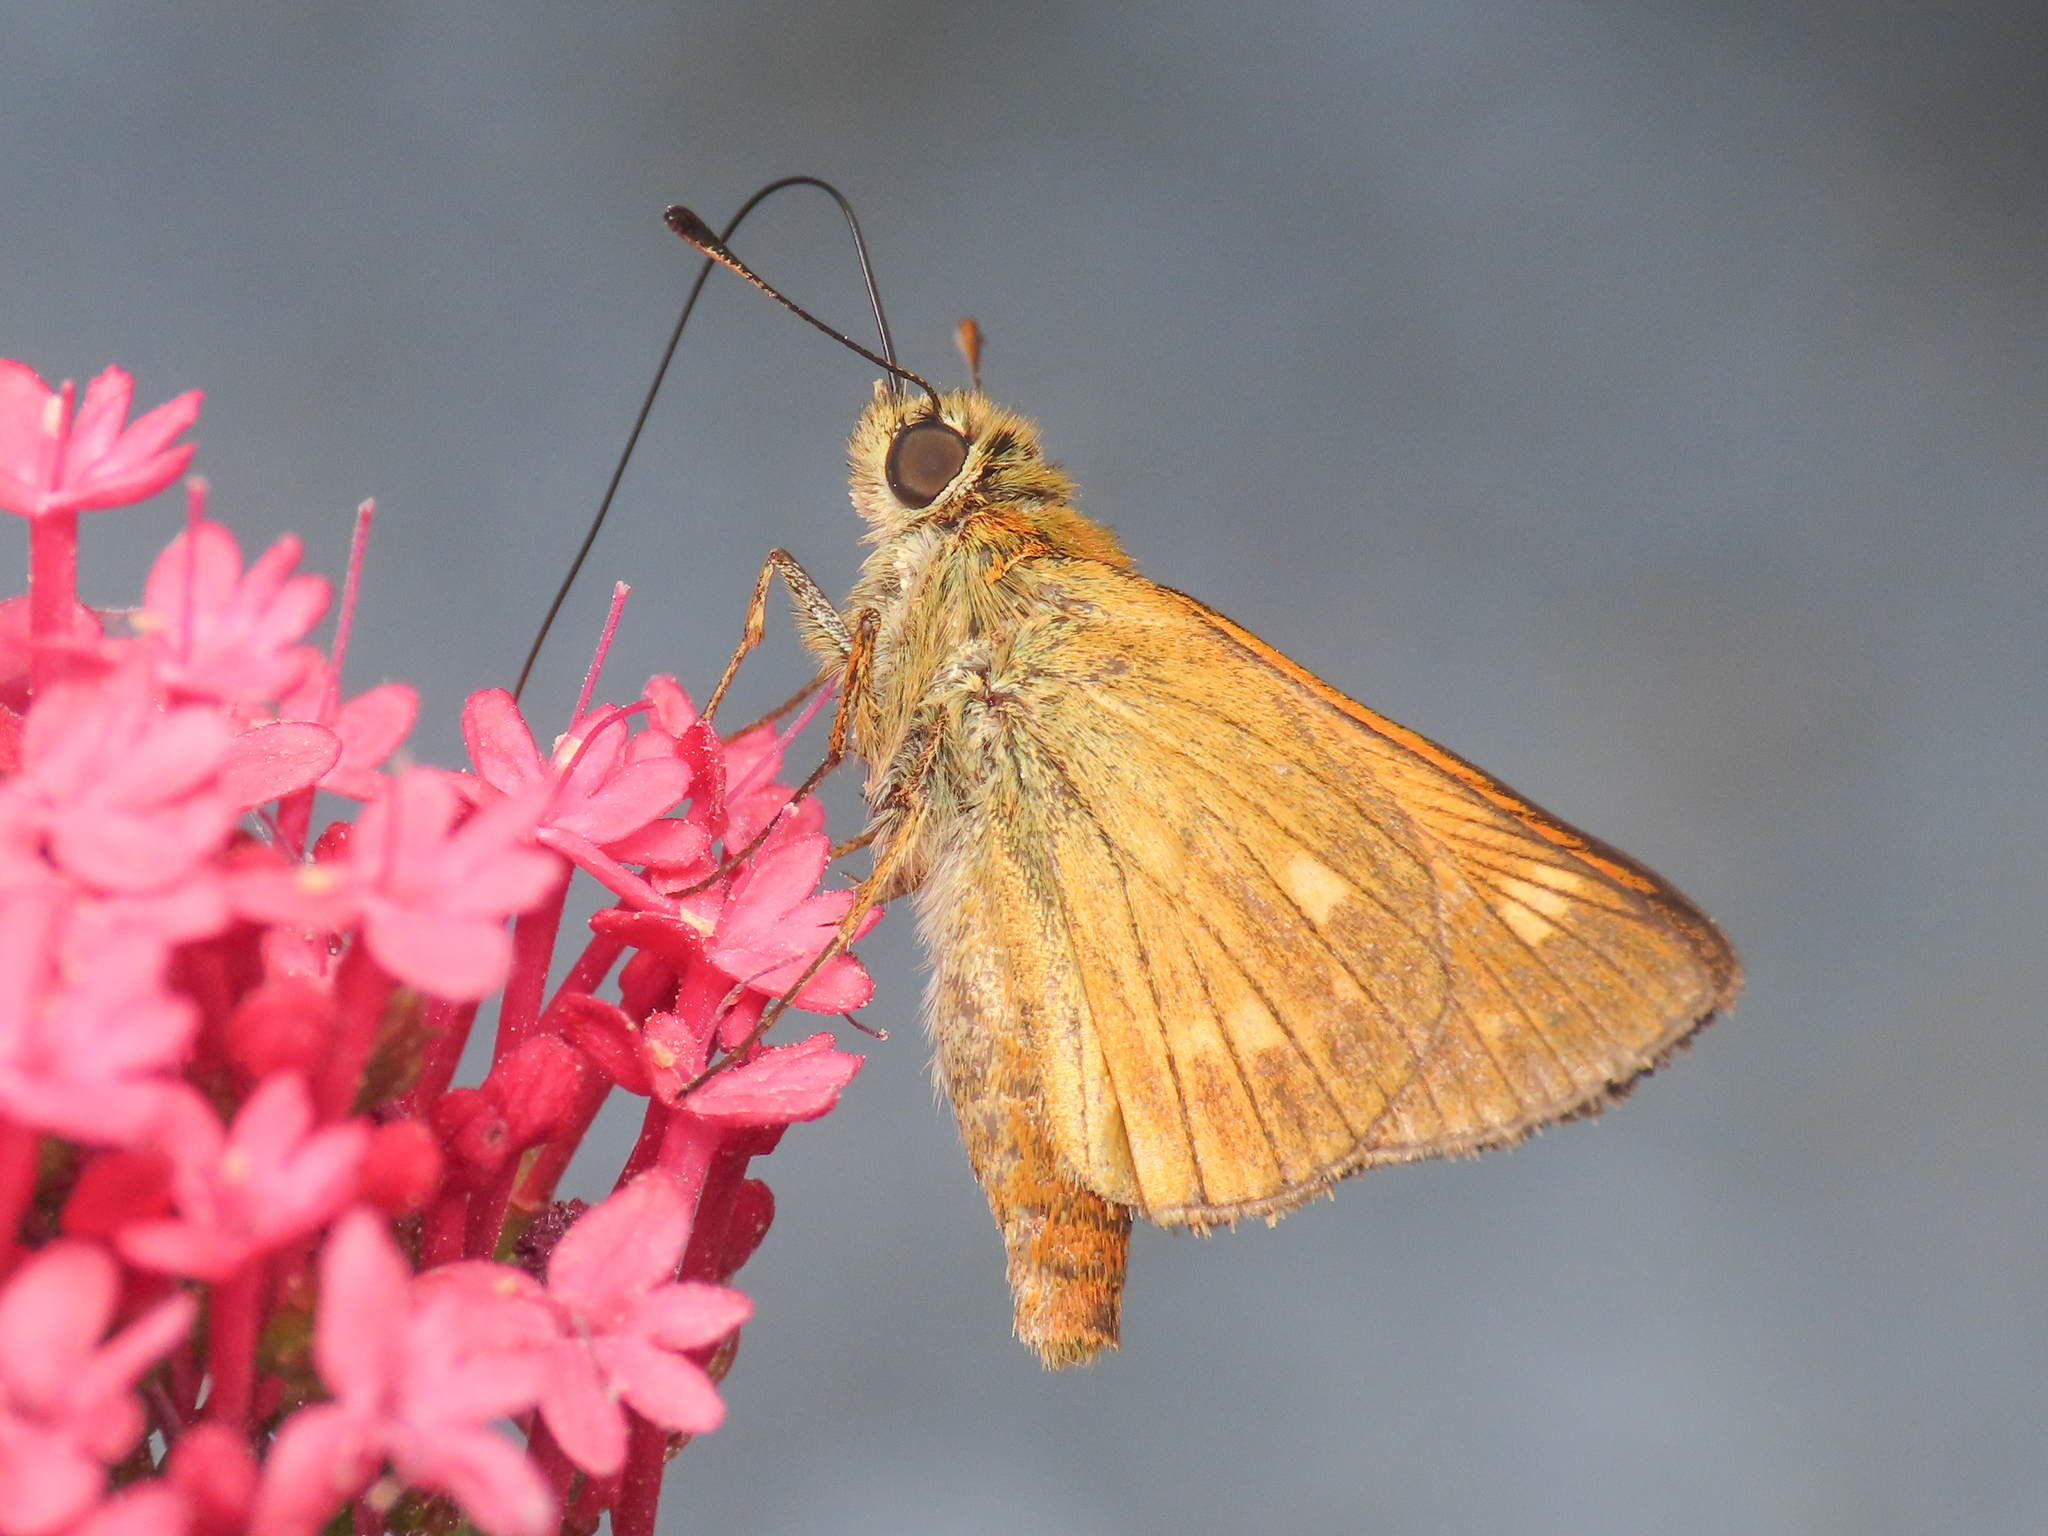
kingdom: Animalia
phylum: Arthropoda
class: Insecta
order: Lepidoptera
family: Hesperiidae
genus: Ochlodes
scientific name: Ochlodes venata
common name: Large skipper
